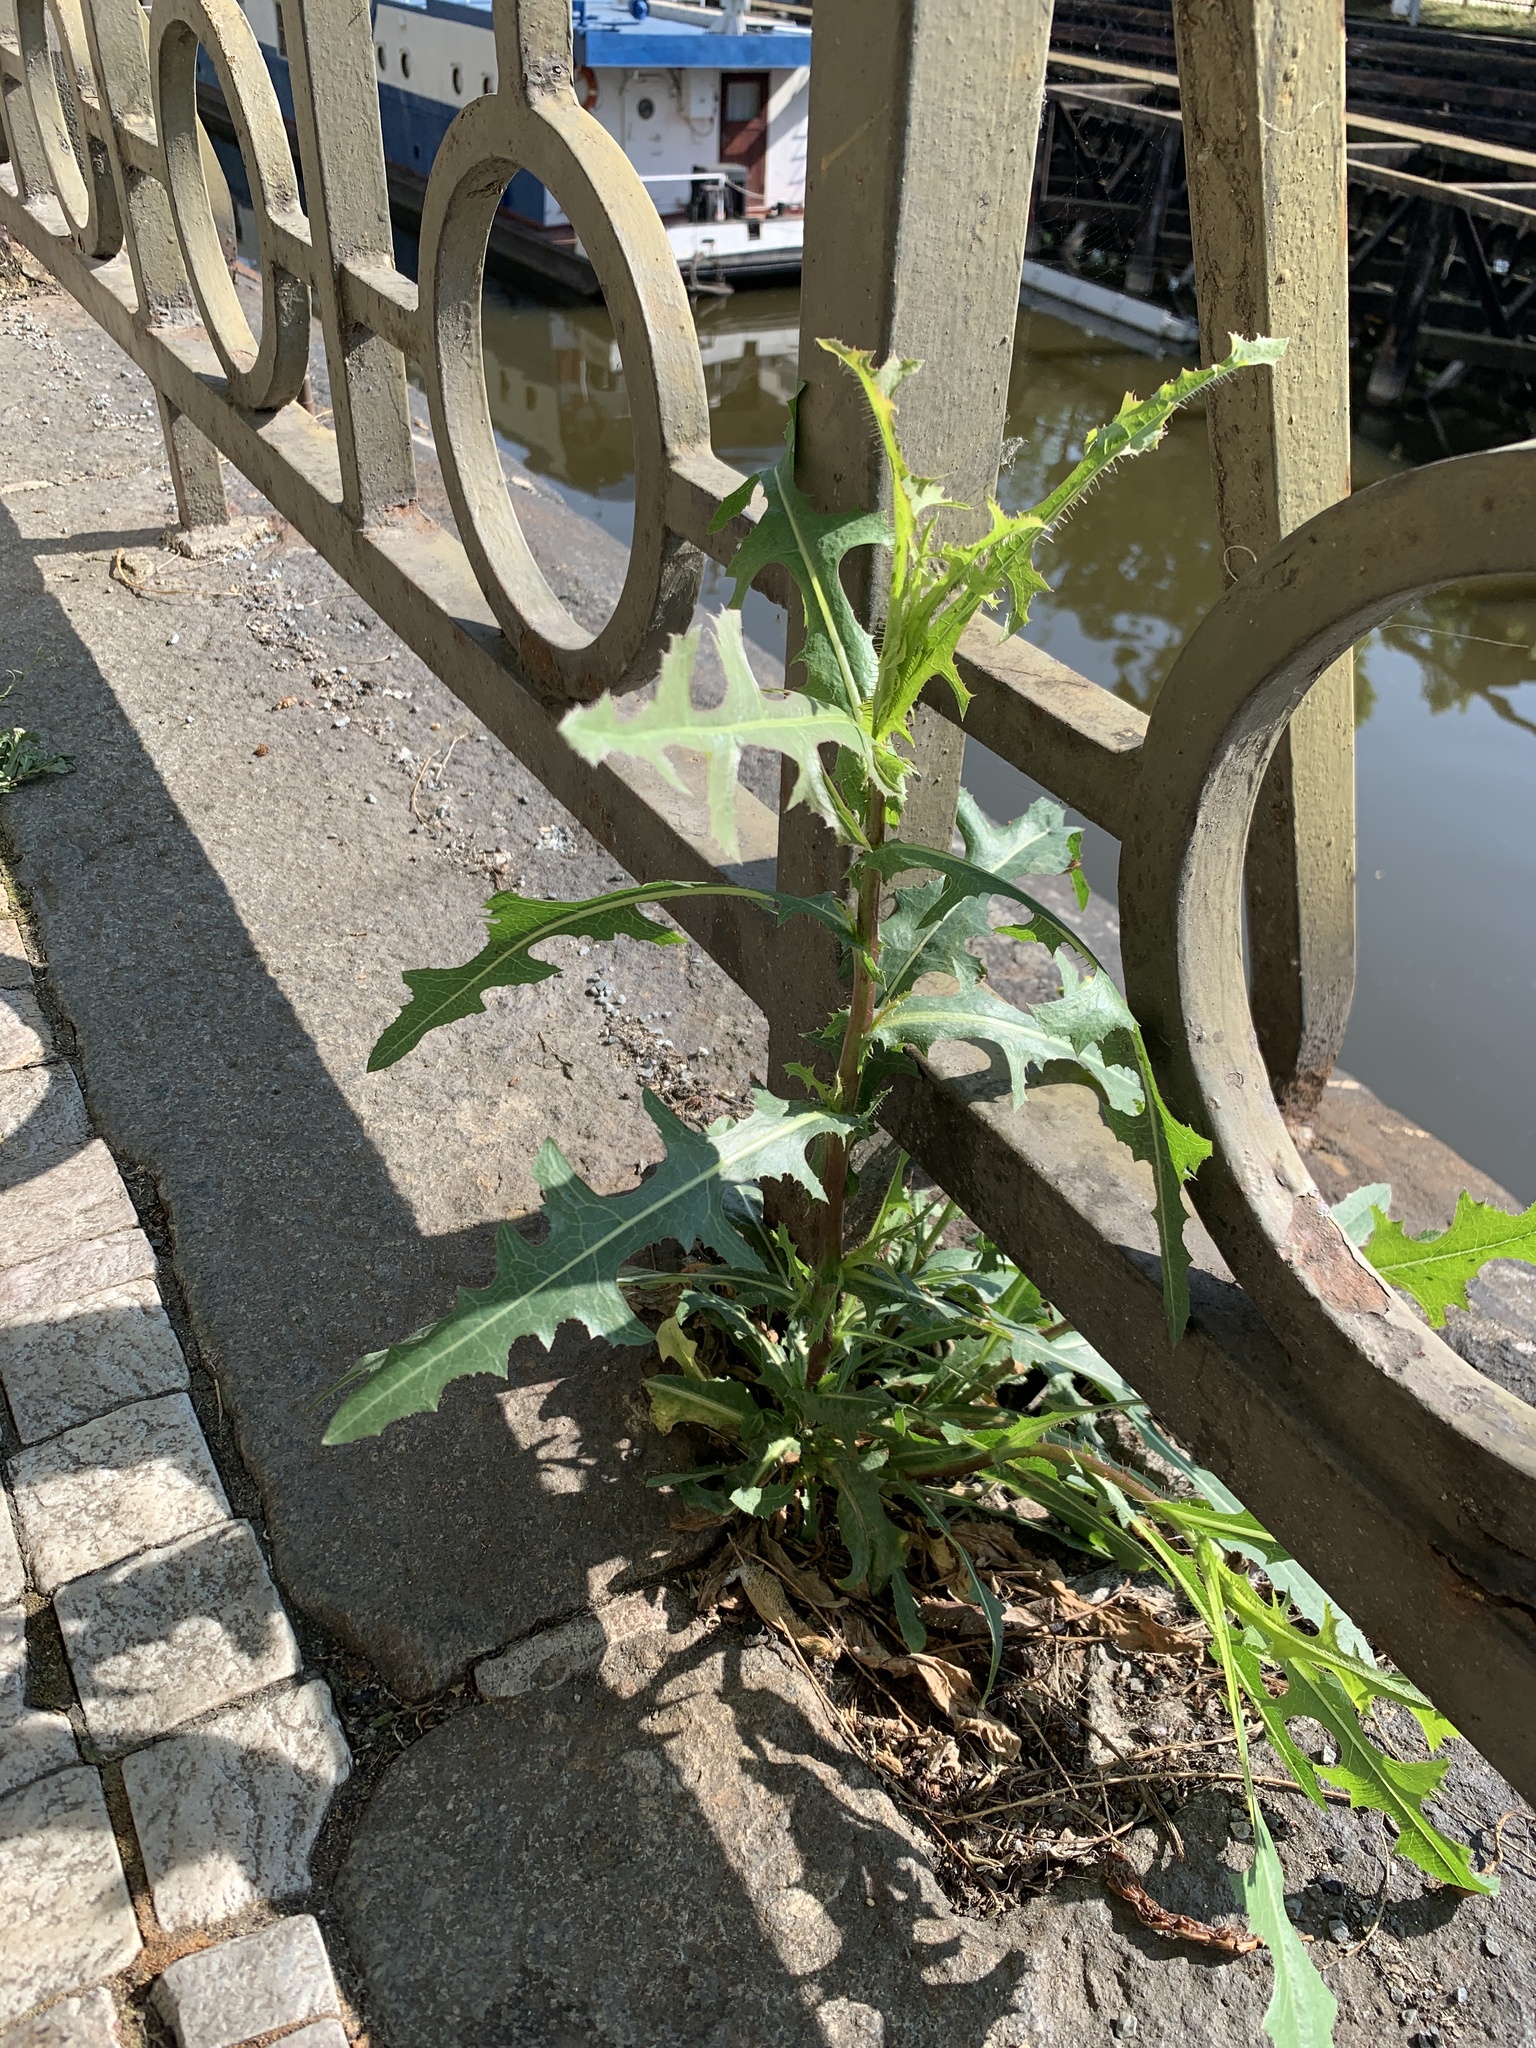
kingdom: Plantae
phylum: Tracheophyta
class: Magnoliopsida
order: Asterales
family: Asteraceae
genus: Lactuca
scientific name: Lactuca serriola
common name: Prickly lettuce
